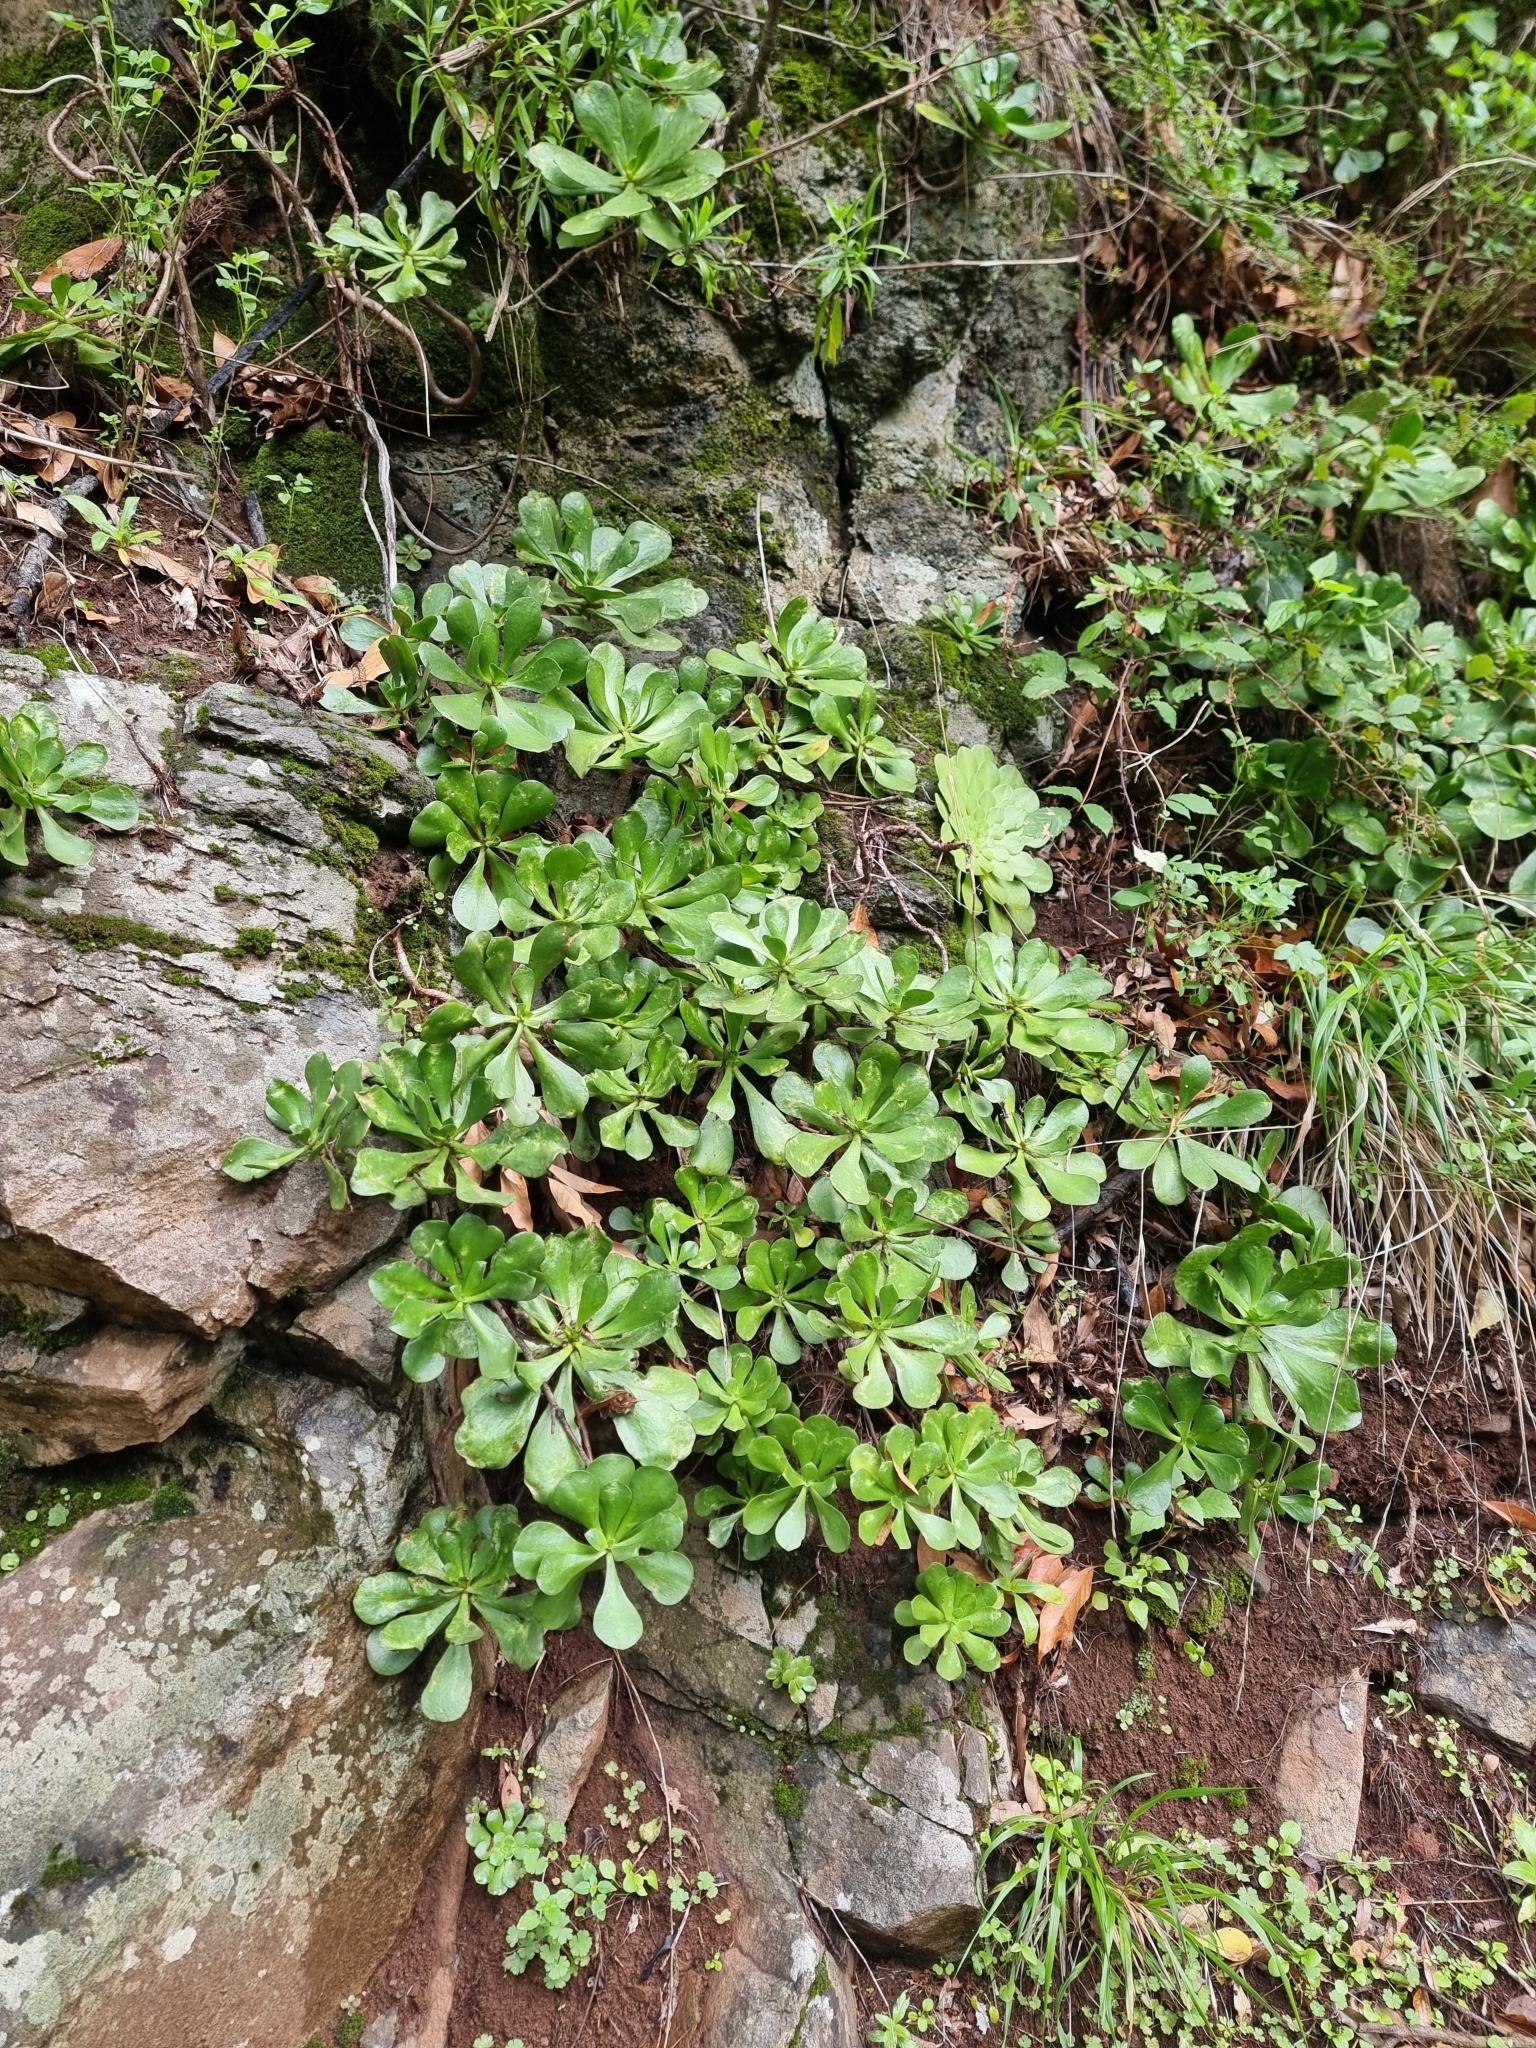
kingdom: Plantae
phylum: Tracheophyta
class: Magnoliopsida
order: Saxifragales
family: Crassulaceae
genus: Aeonium
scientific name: Aeonium glutinosum
